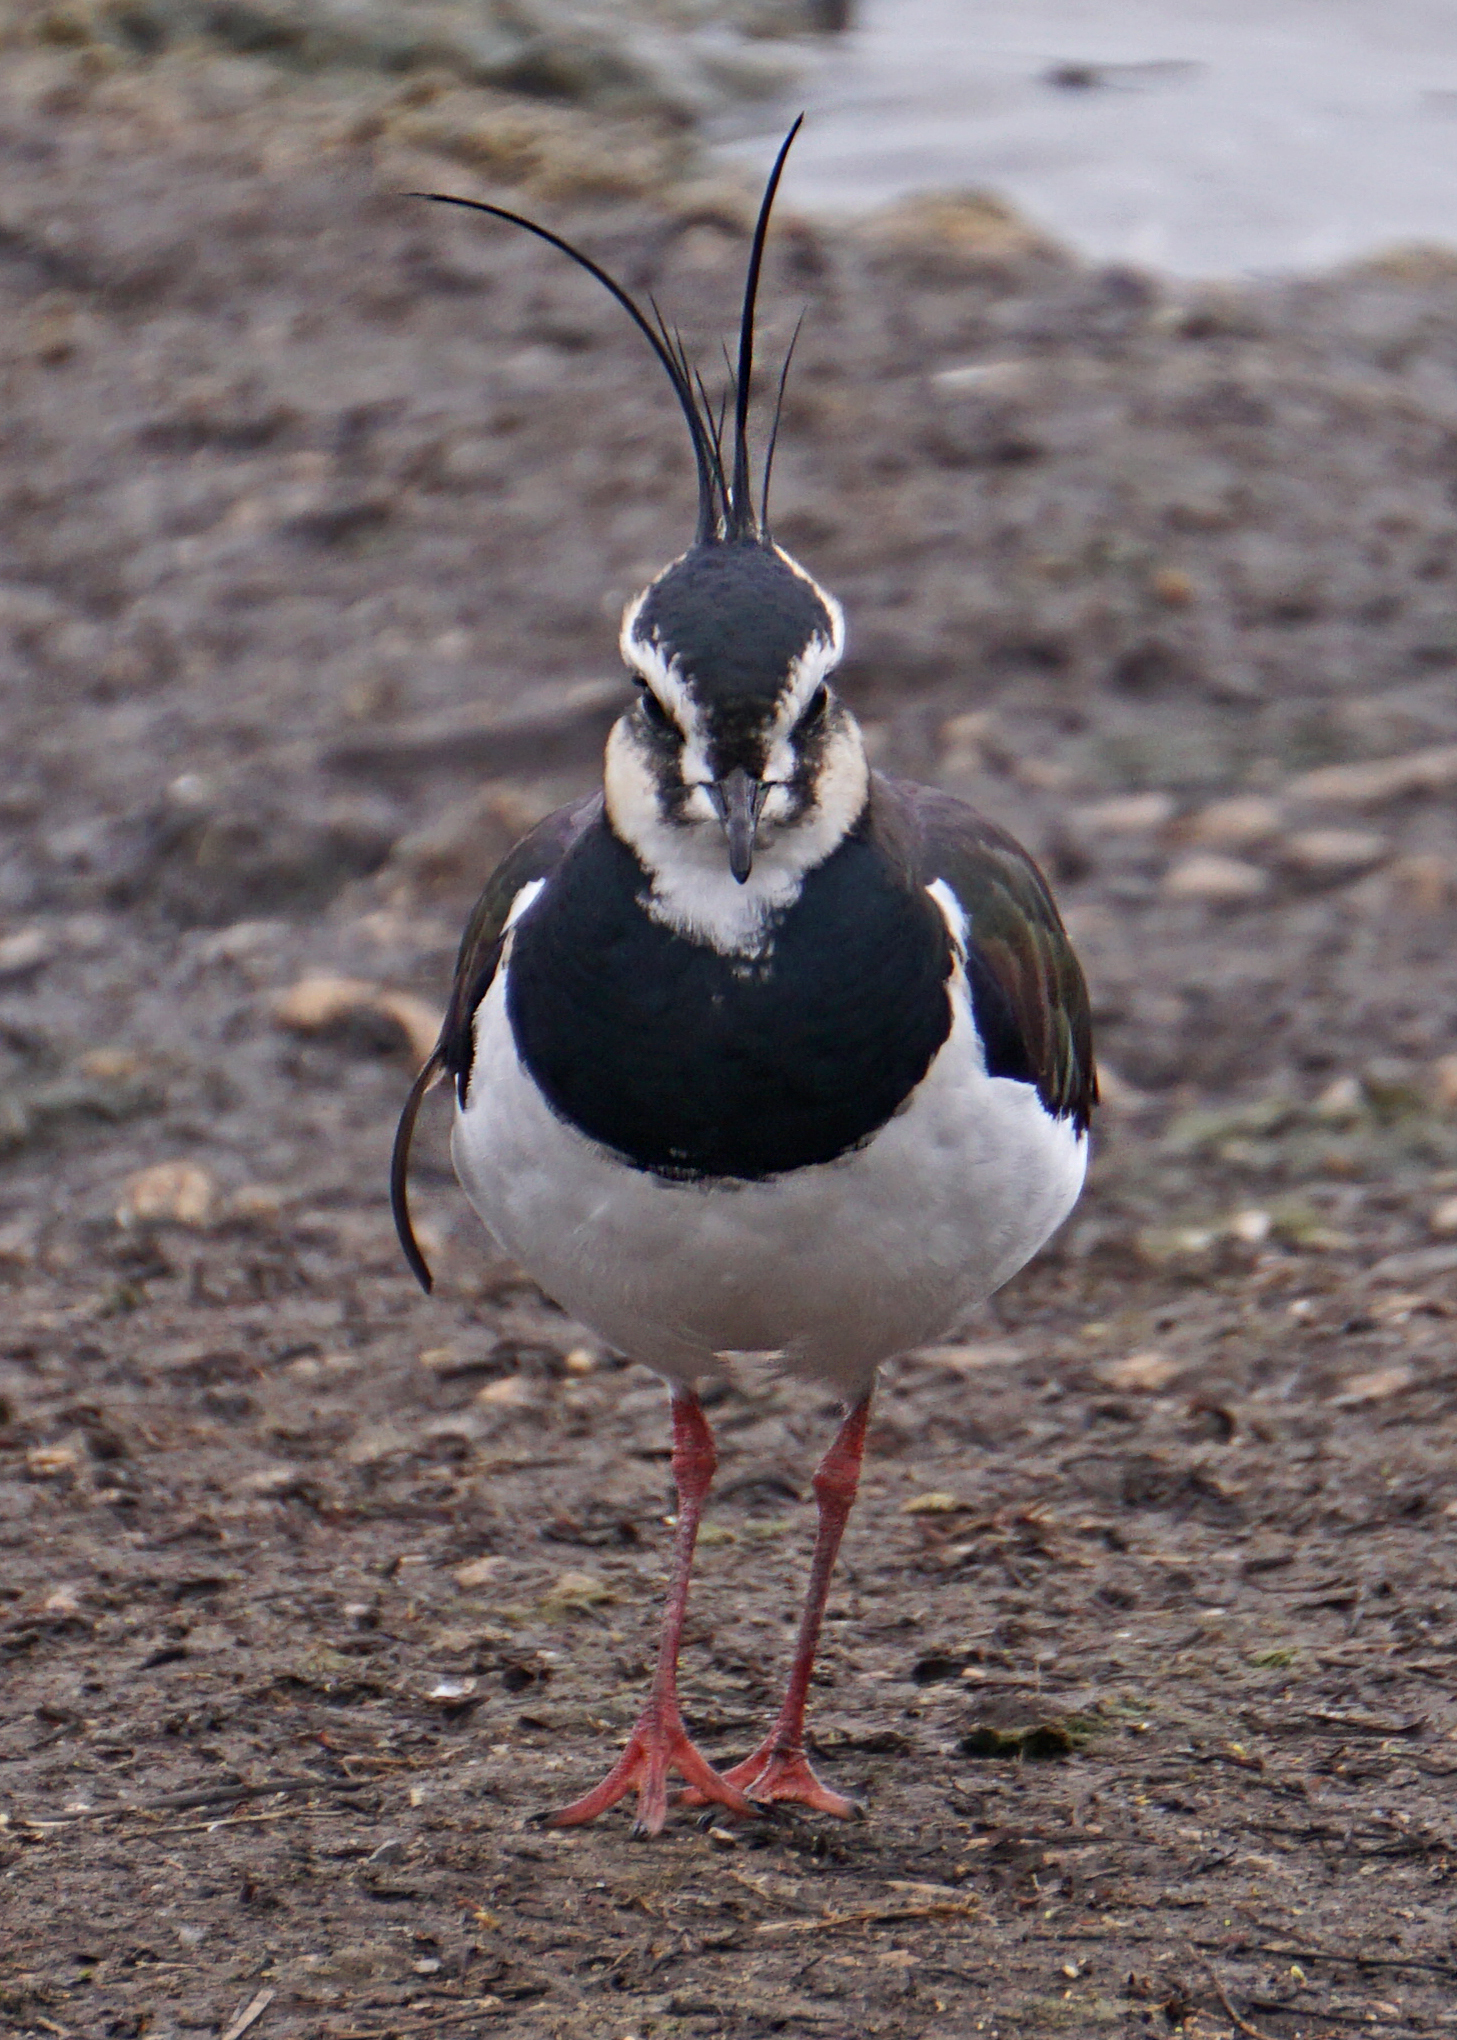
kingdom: Animalia
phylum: Chordata
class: Aves
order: Charadriiformes
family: Charadriidae
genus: Vanellus
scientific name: Vanellus vanellus
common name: Northern lapwing
